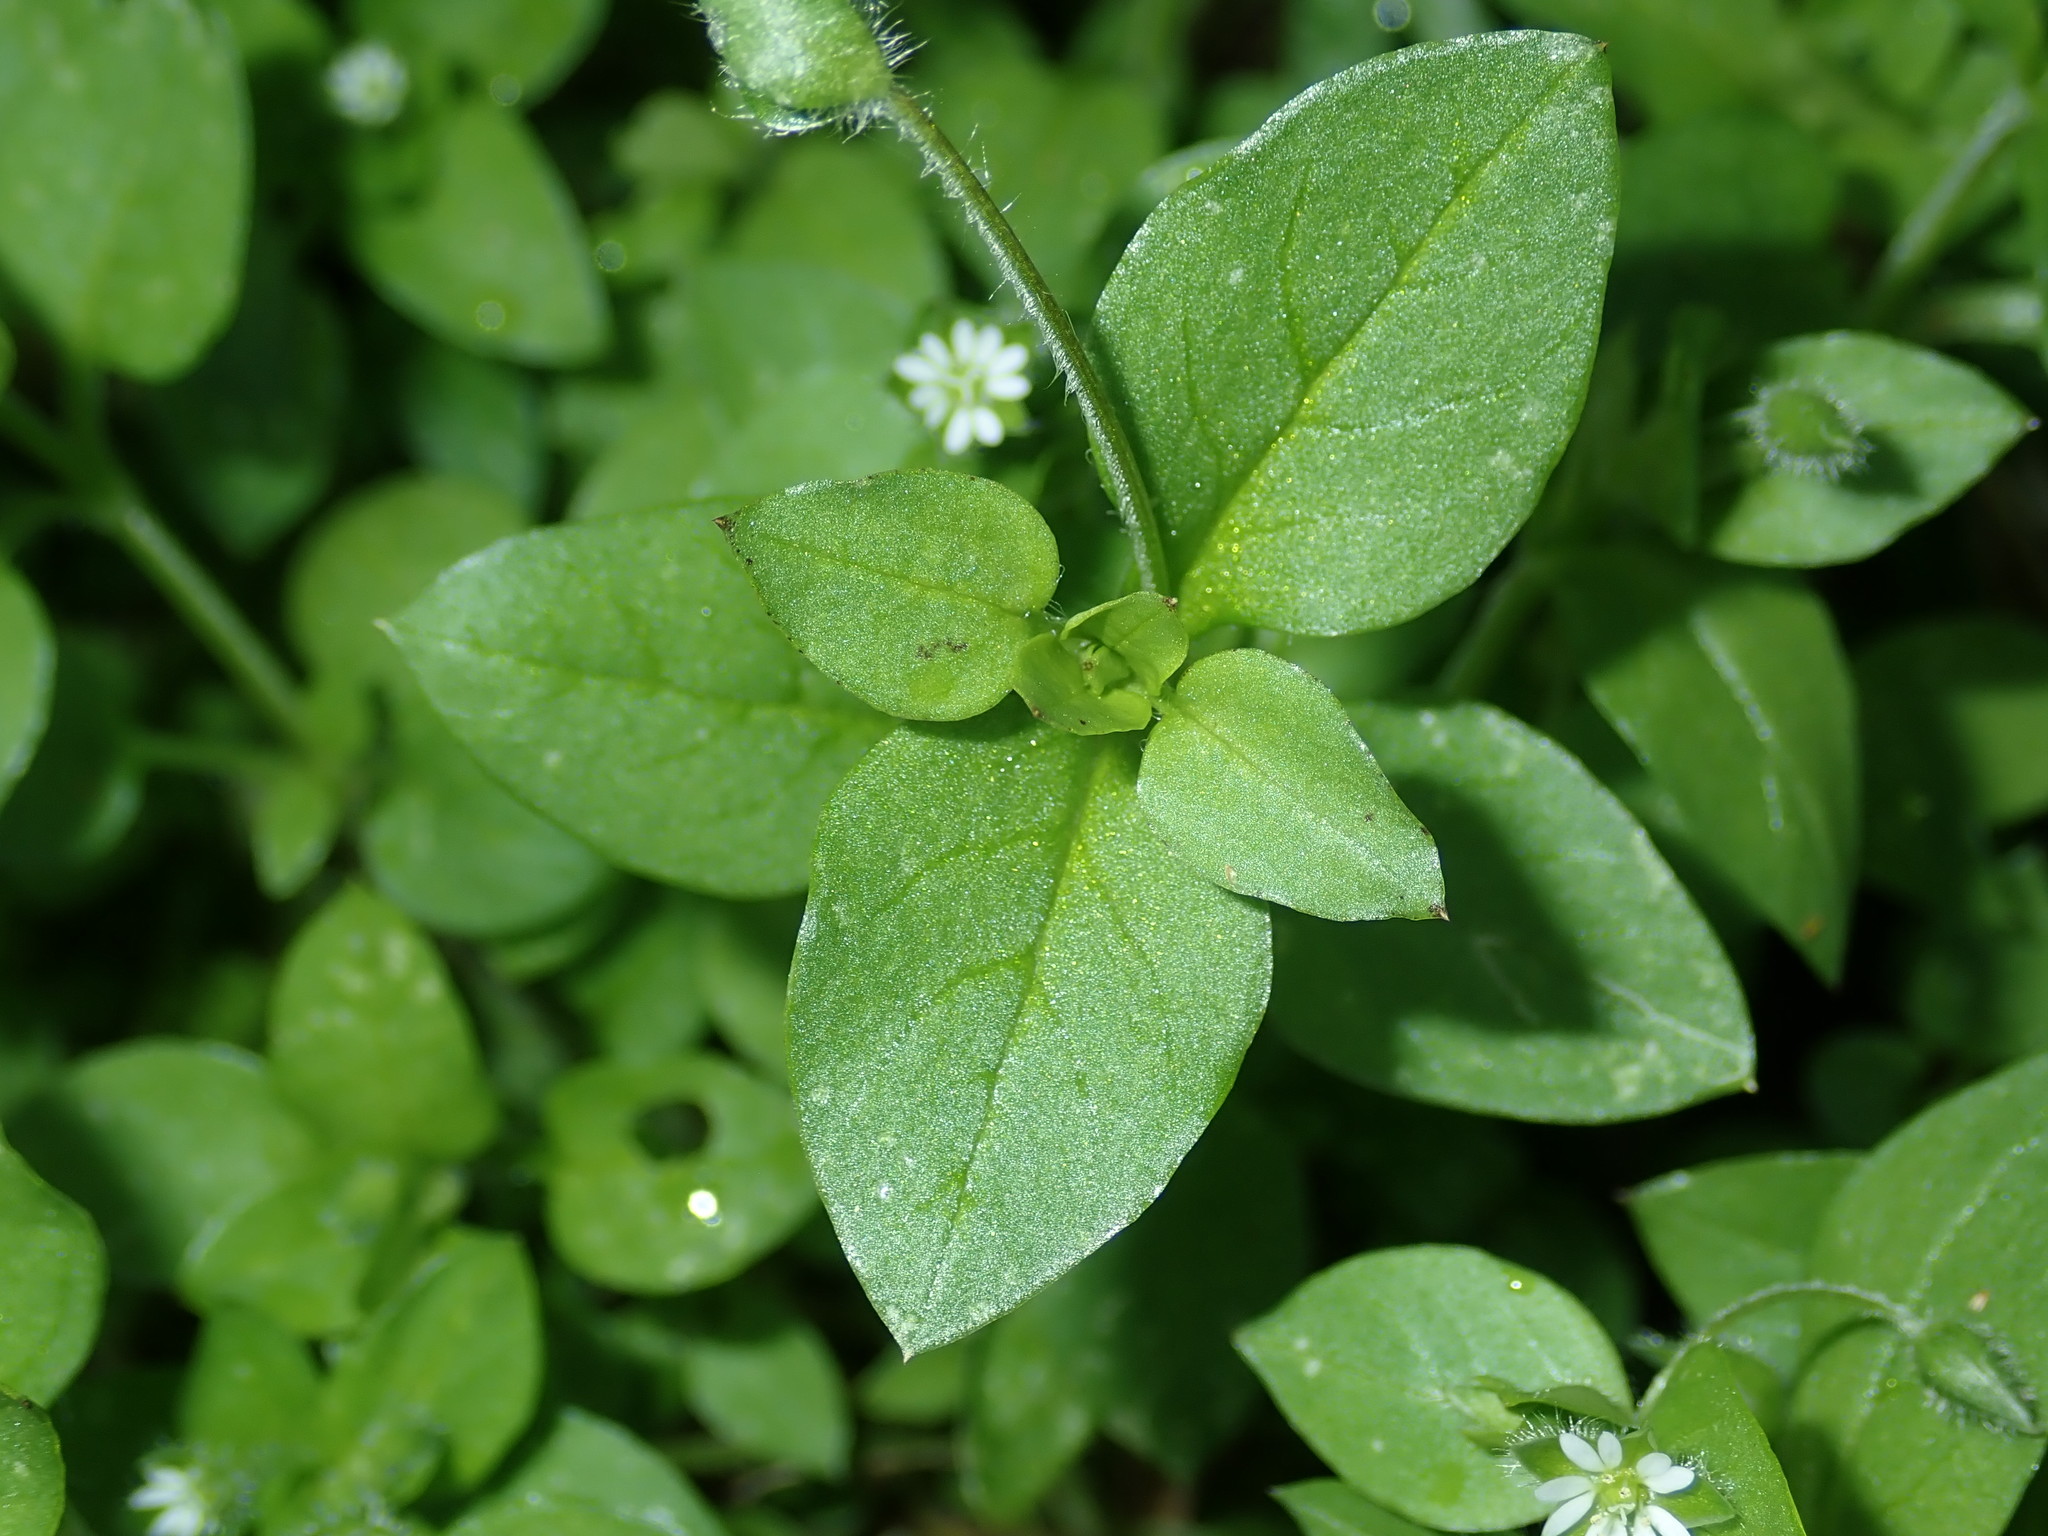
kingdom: Plantae
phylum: Tracheophyta
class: Magnoliopsida
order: Caryophyllales
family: Caryophyllaceae
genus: Stellaria
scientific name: Stellaria media
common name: Common chickweed
